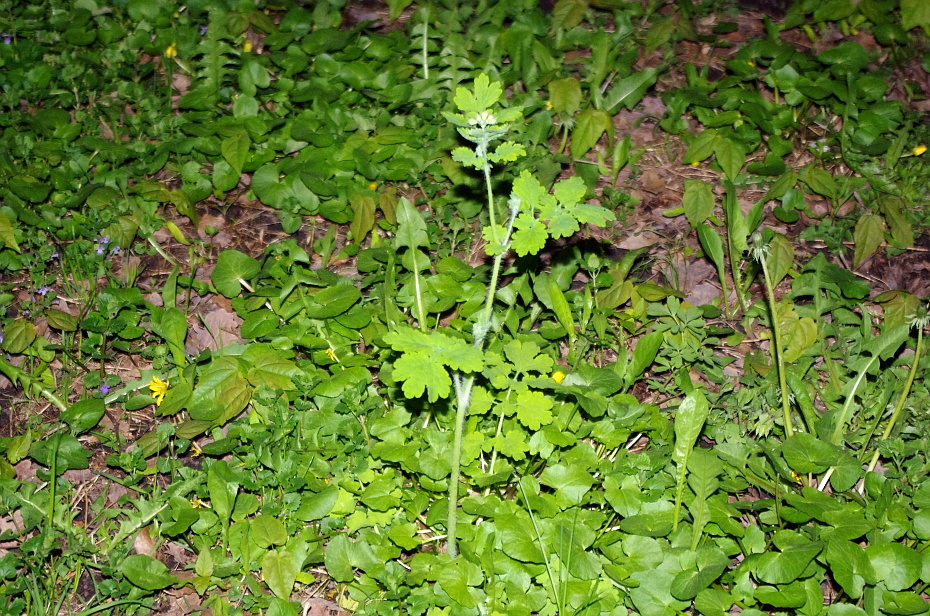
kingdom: Plantae
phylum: Tracheophyta
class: Magnoliopsida
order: Ranunculales
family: Papaveraceae
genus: Chelidonium
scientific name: Chelidonium majus
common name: Greater celandine
